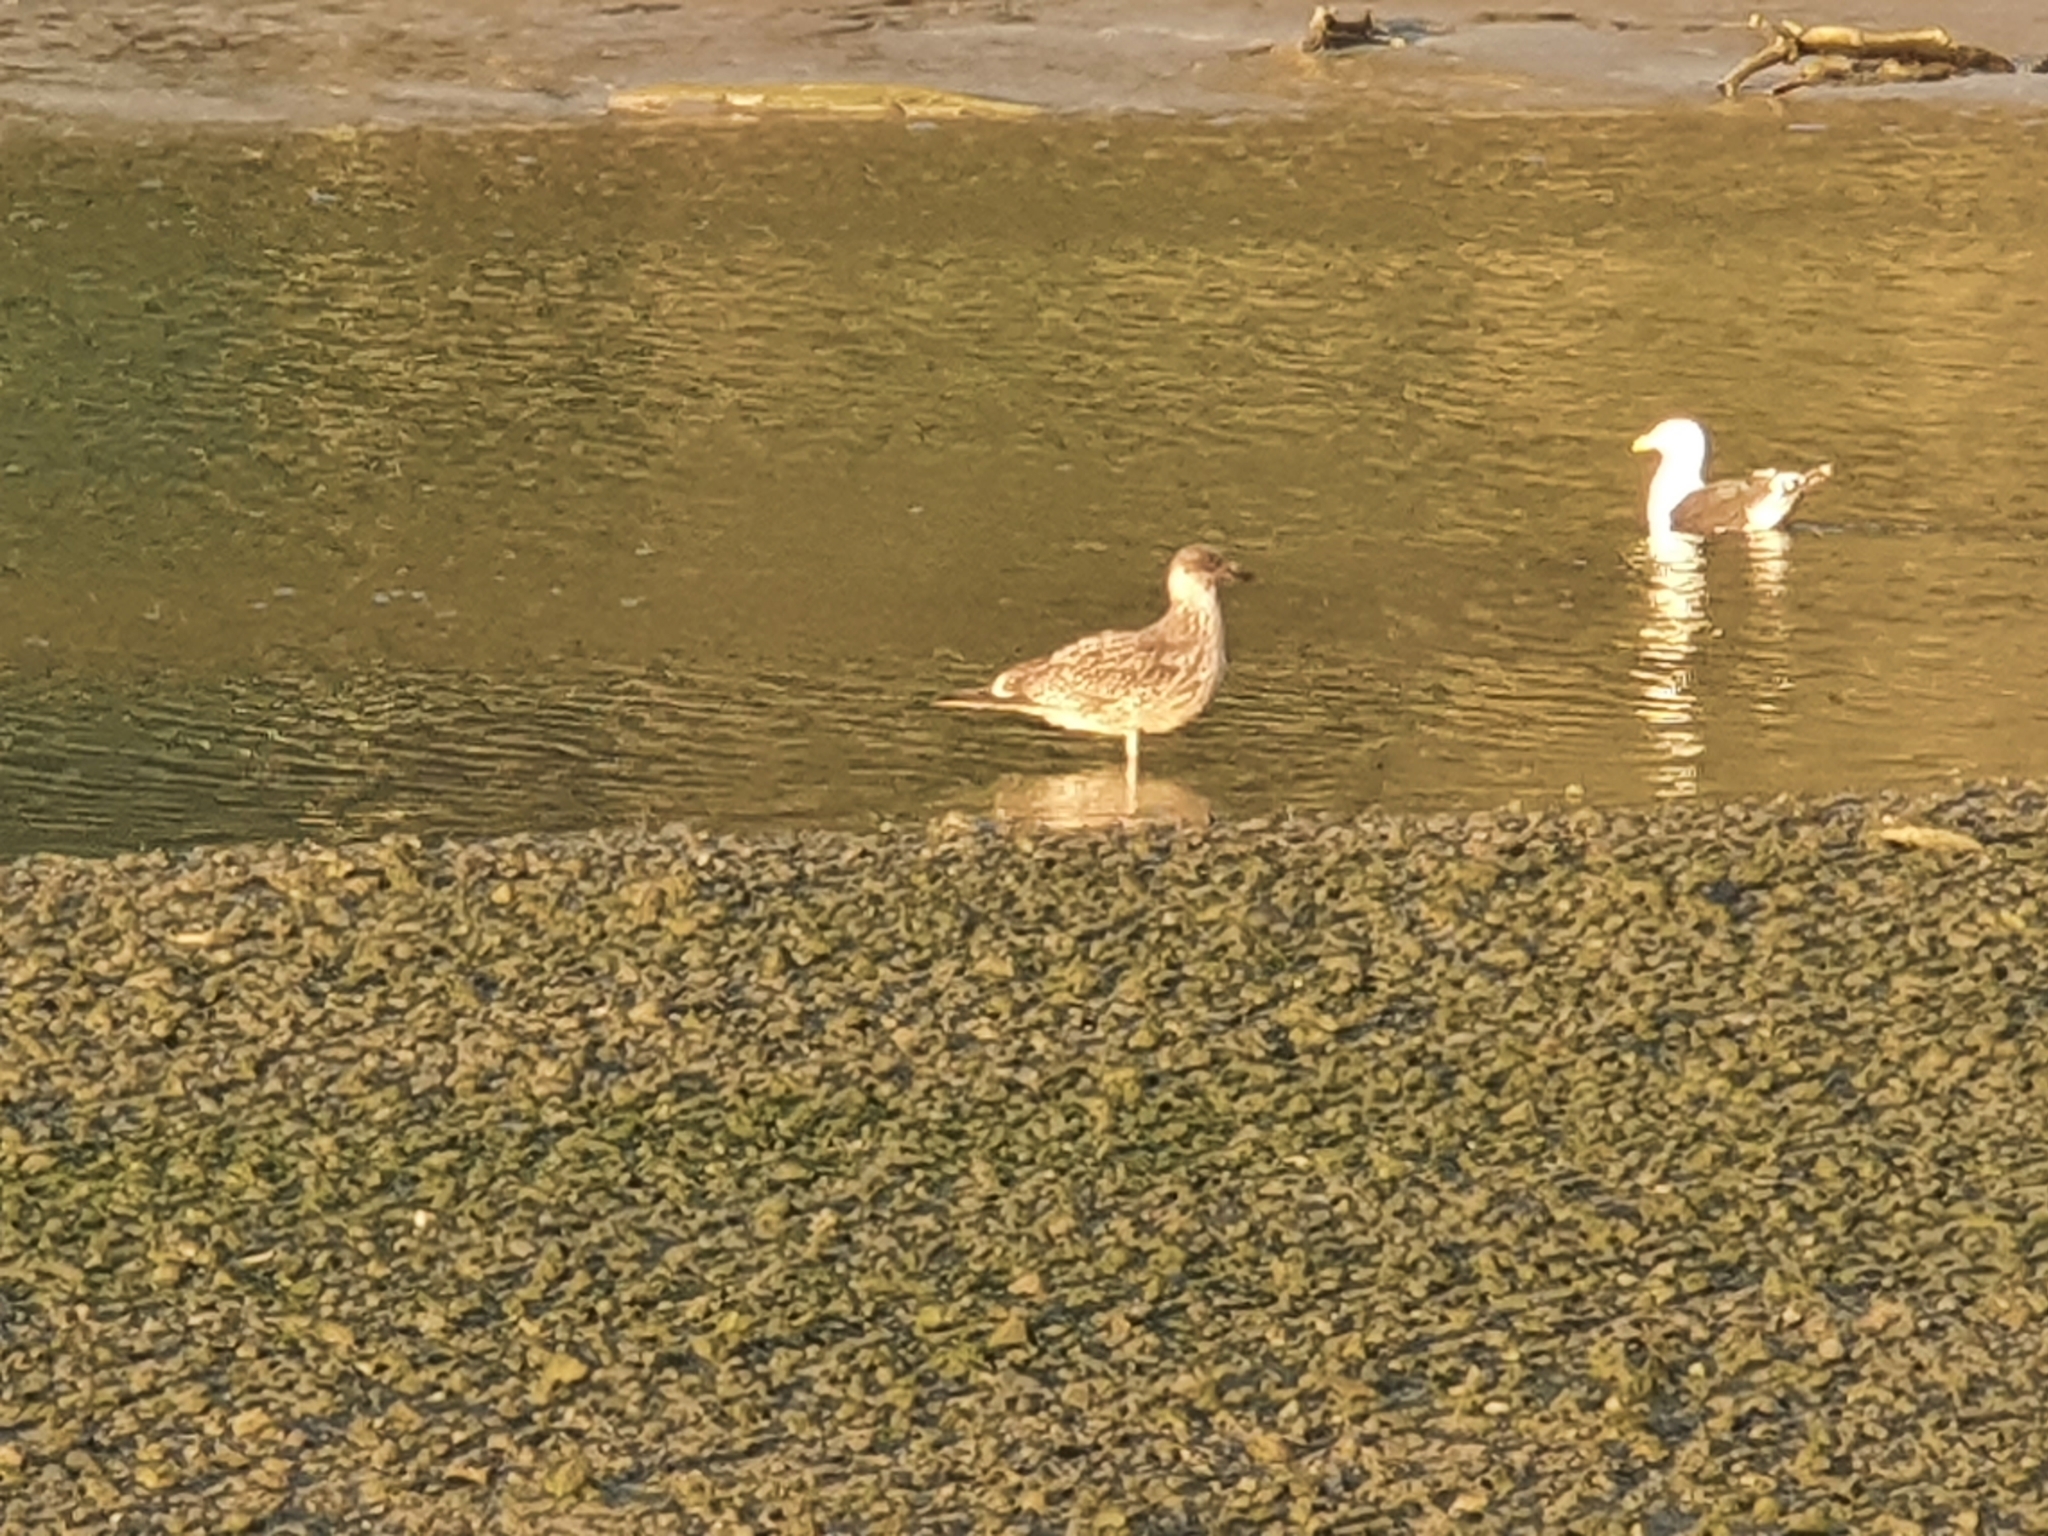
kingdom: Animalia
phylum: Chordata
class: Aves
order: Charadriiformes
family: Laridae
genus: Larus
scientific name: Larus dominicanus
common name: Kelp gull
